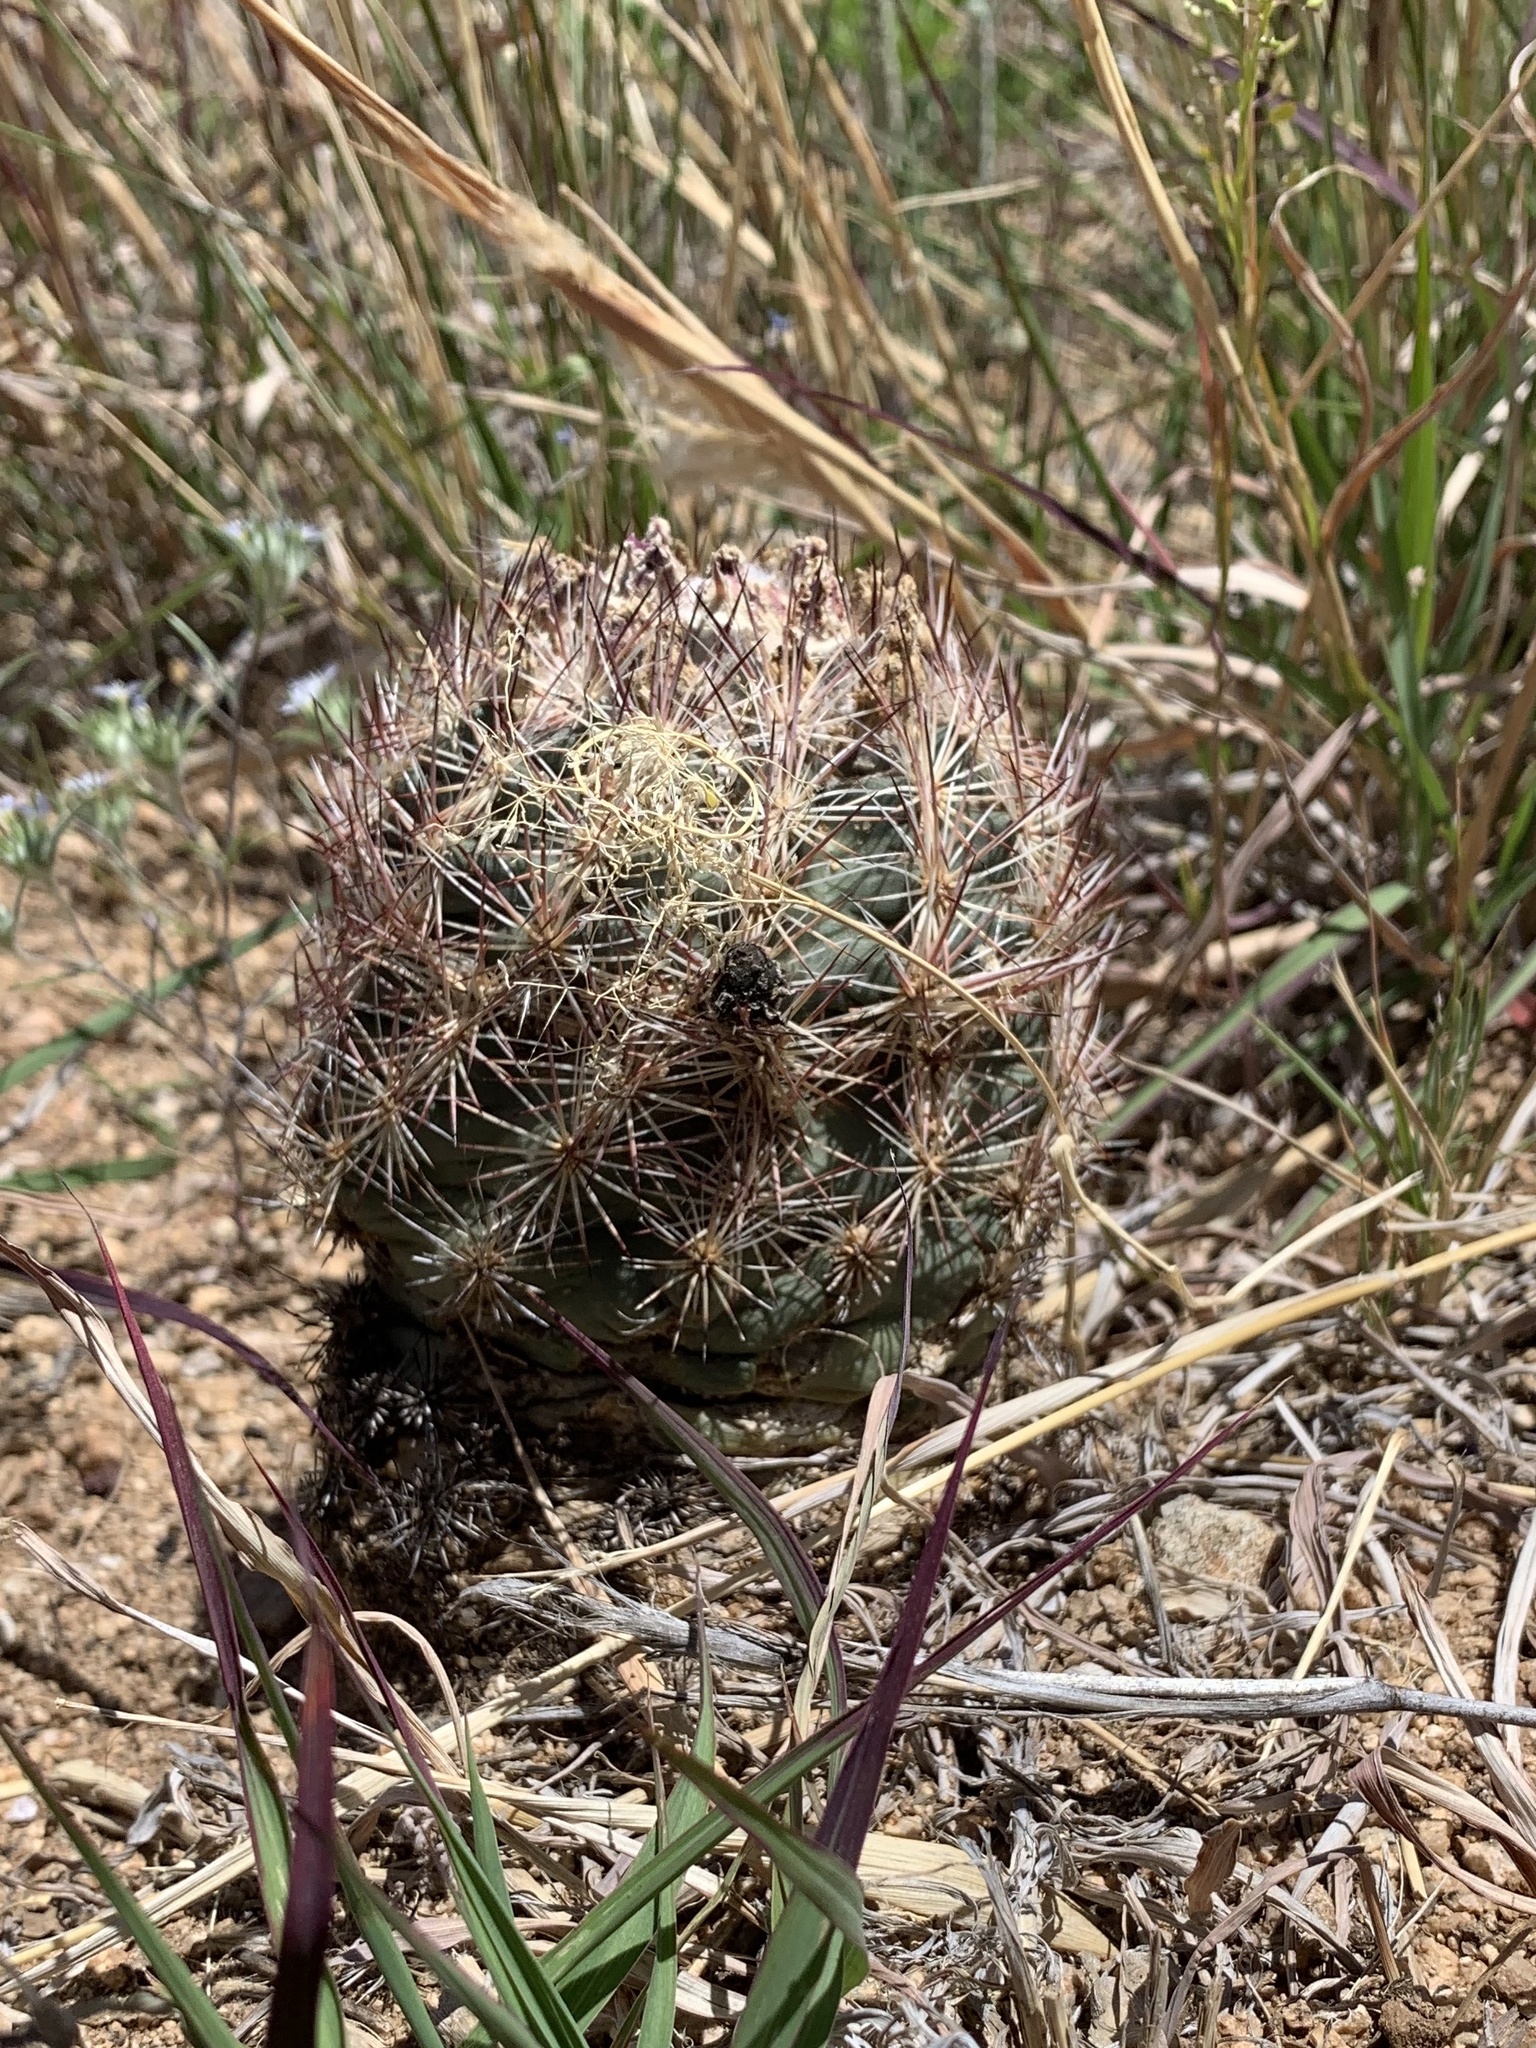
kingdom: Plantae
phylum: Tracheophyta
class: Magnoliopsida
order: Caryophyllales
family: Cactaceae
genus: Sclerocactus
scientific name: Sclerocactus intertextus
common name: White fish-hook cactus
